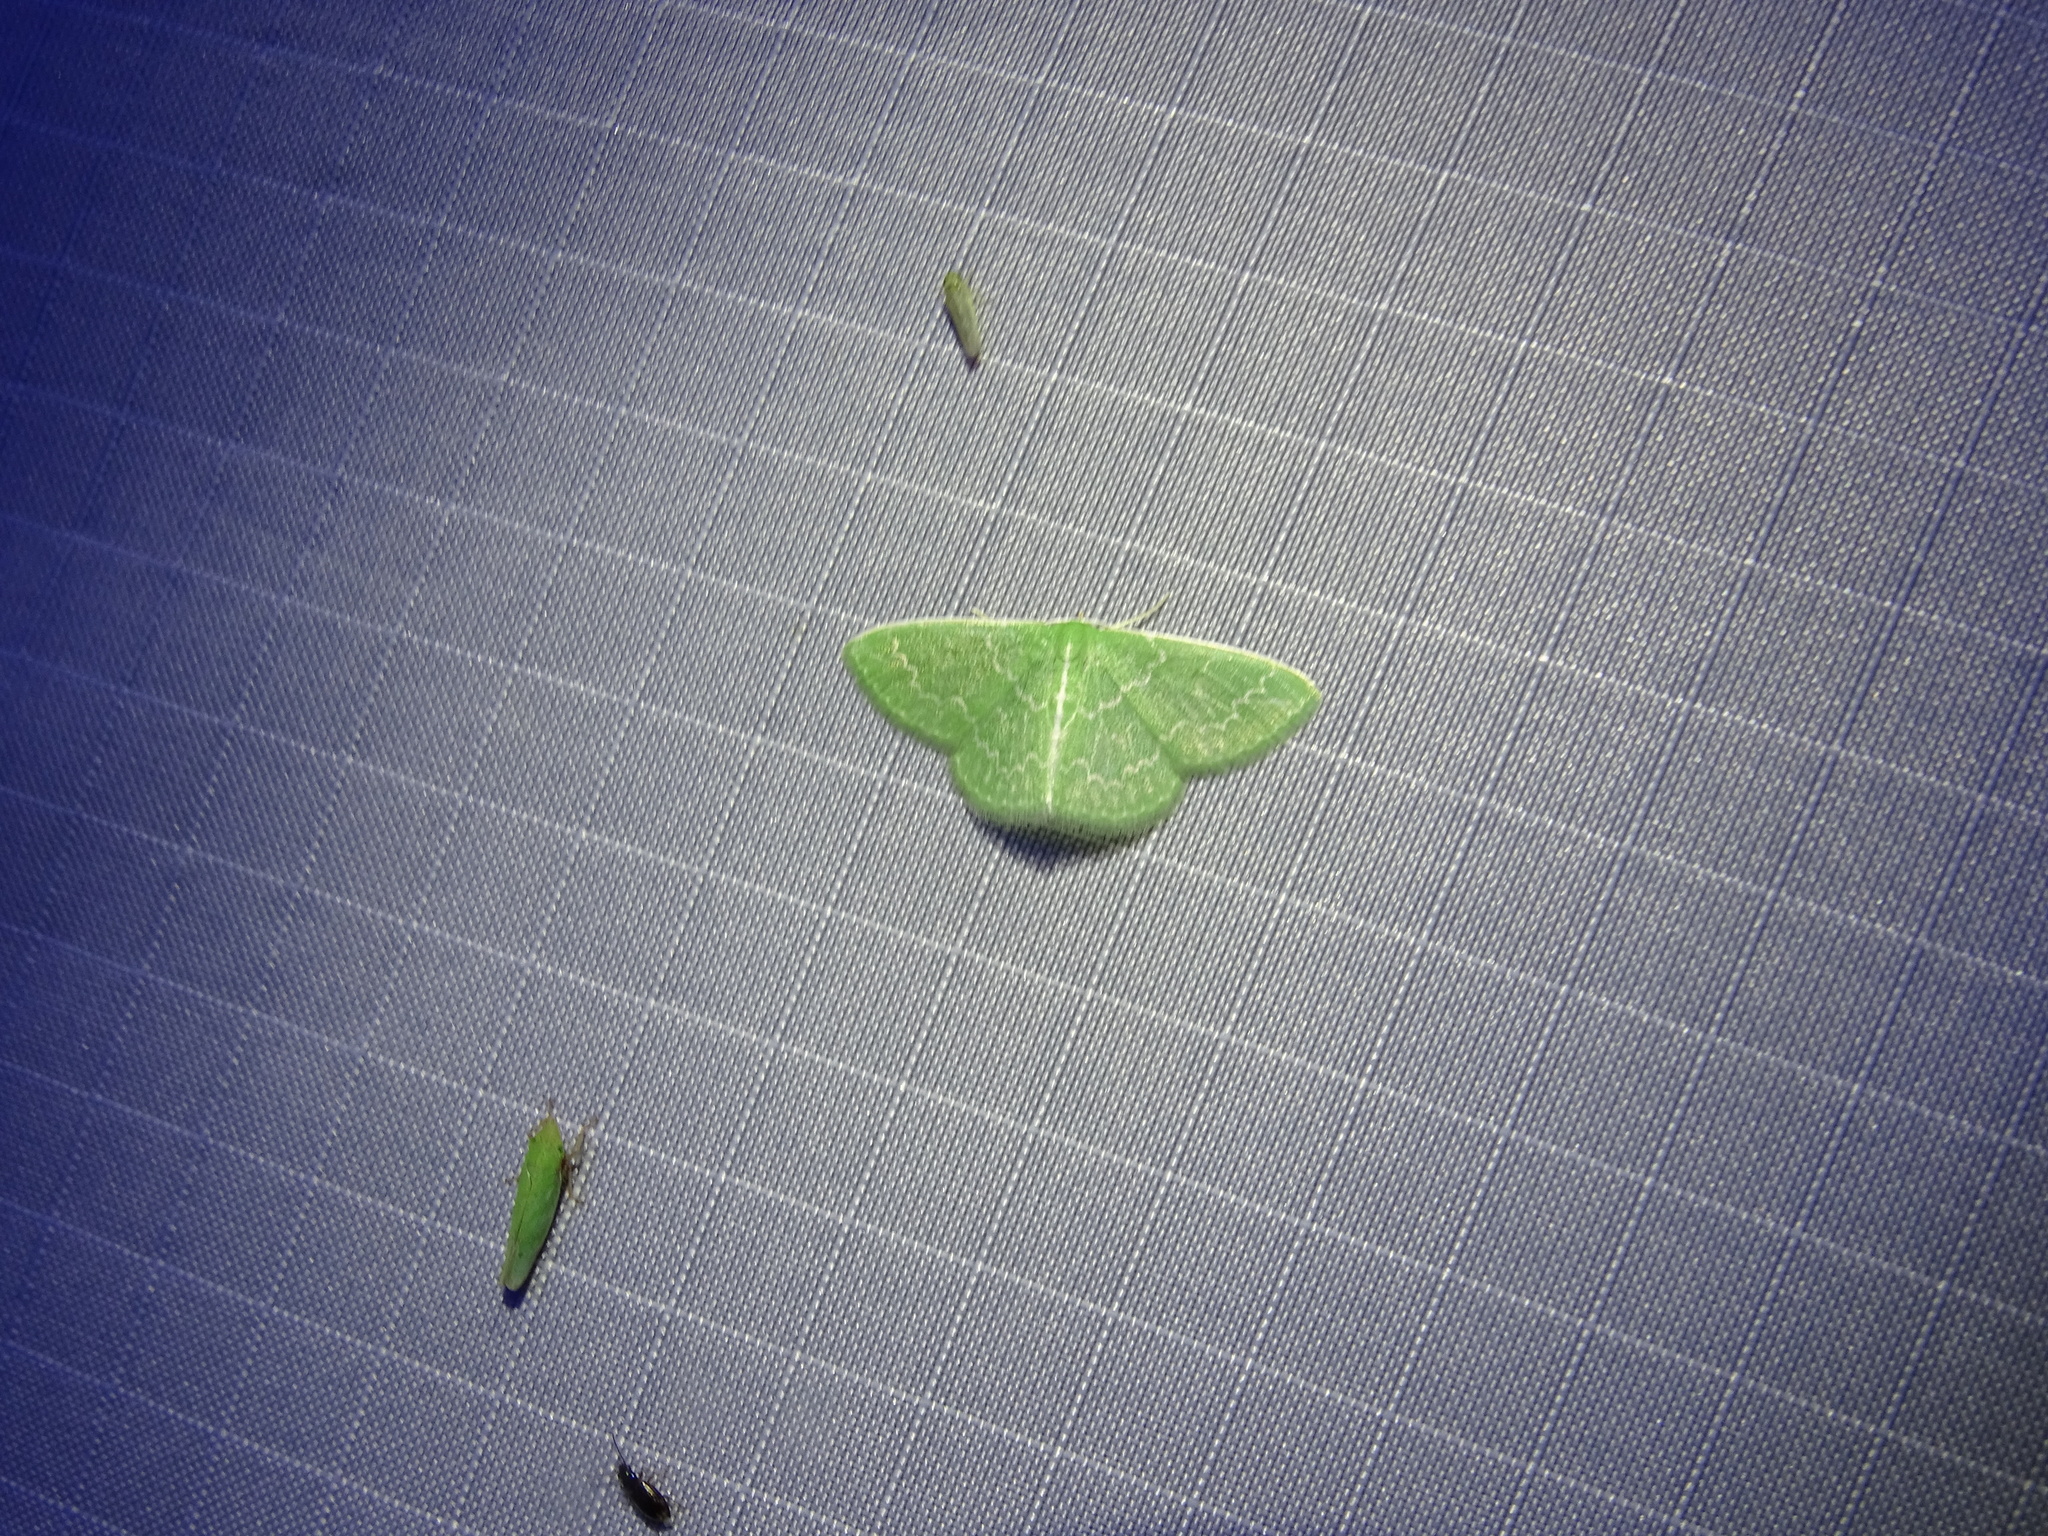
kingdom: Animalia
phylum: Arthropoda
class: Insecta
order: Lepidoptera
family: Geometridae
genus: Synchlora
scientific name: Synchlora frondaria
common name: Southern emerald
